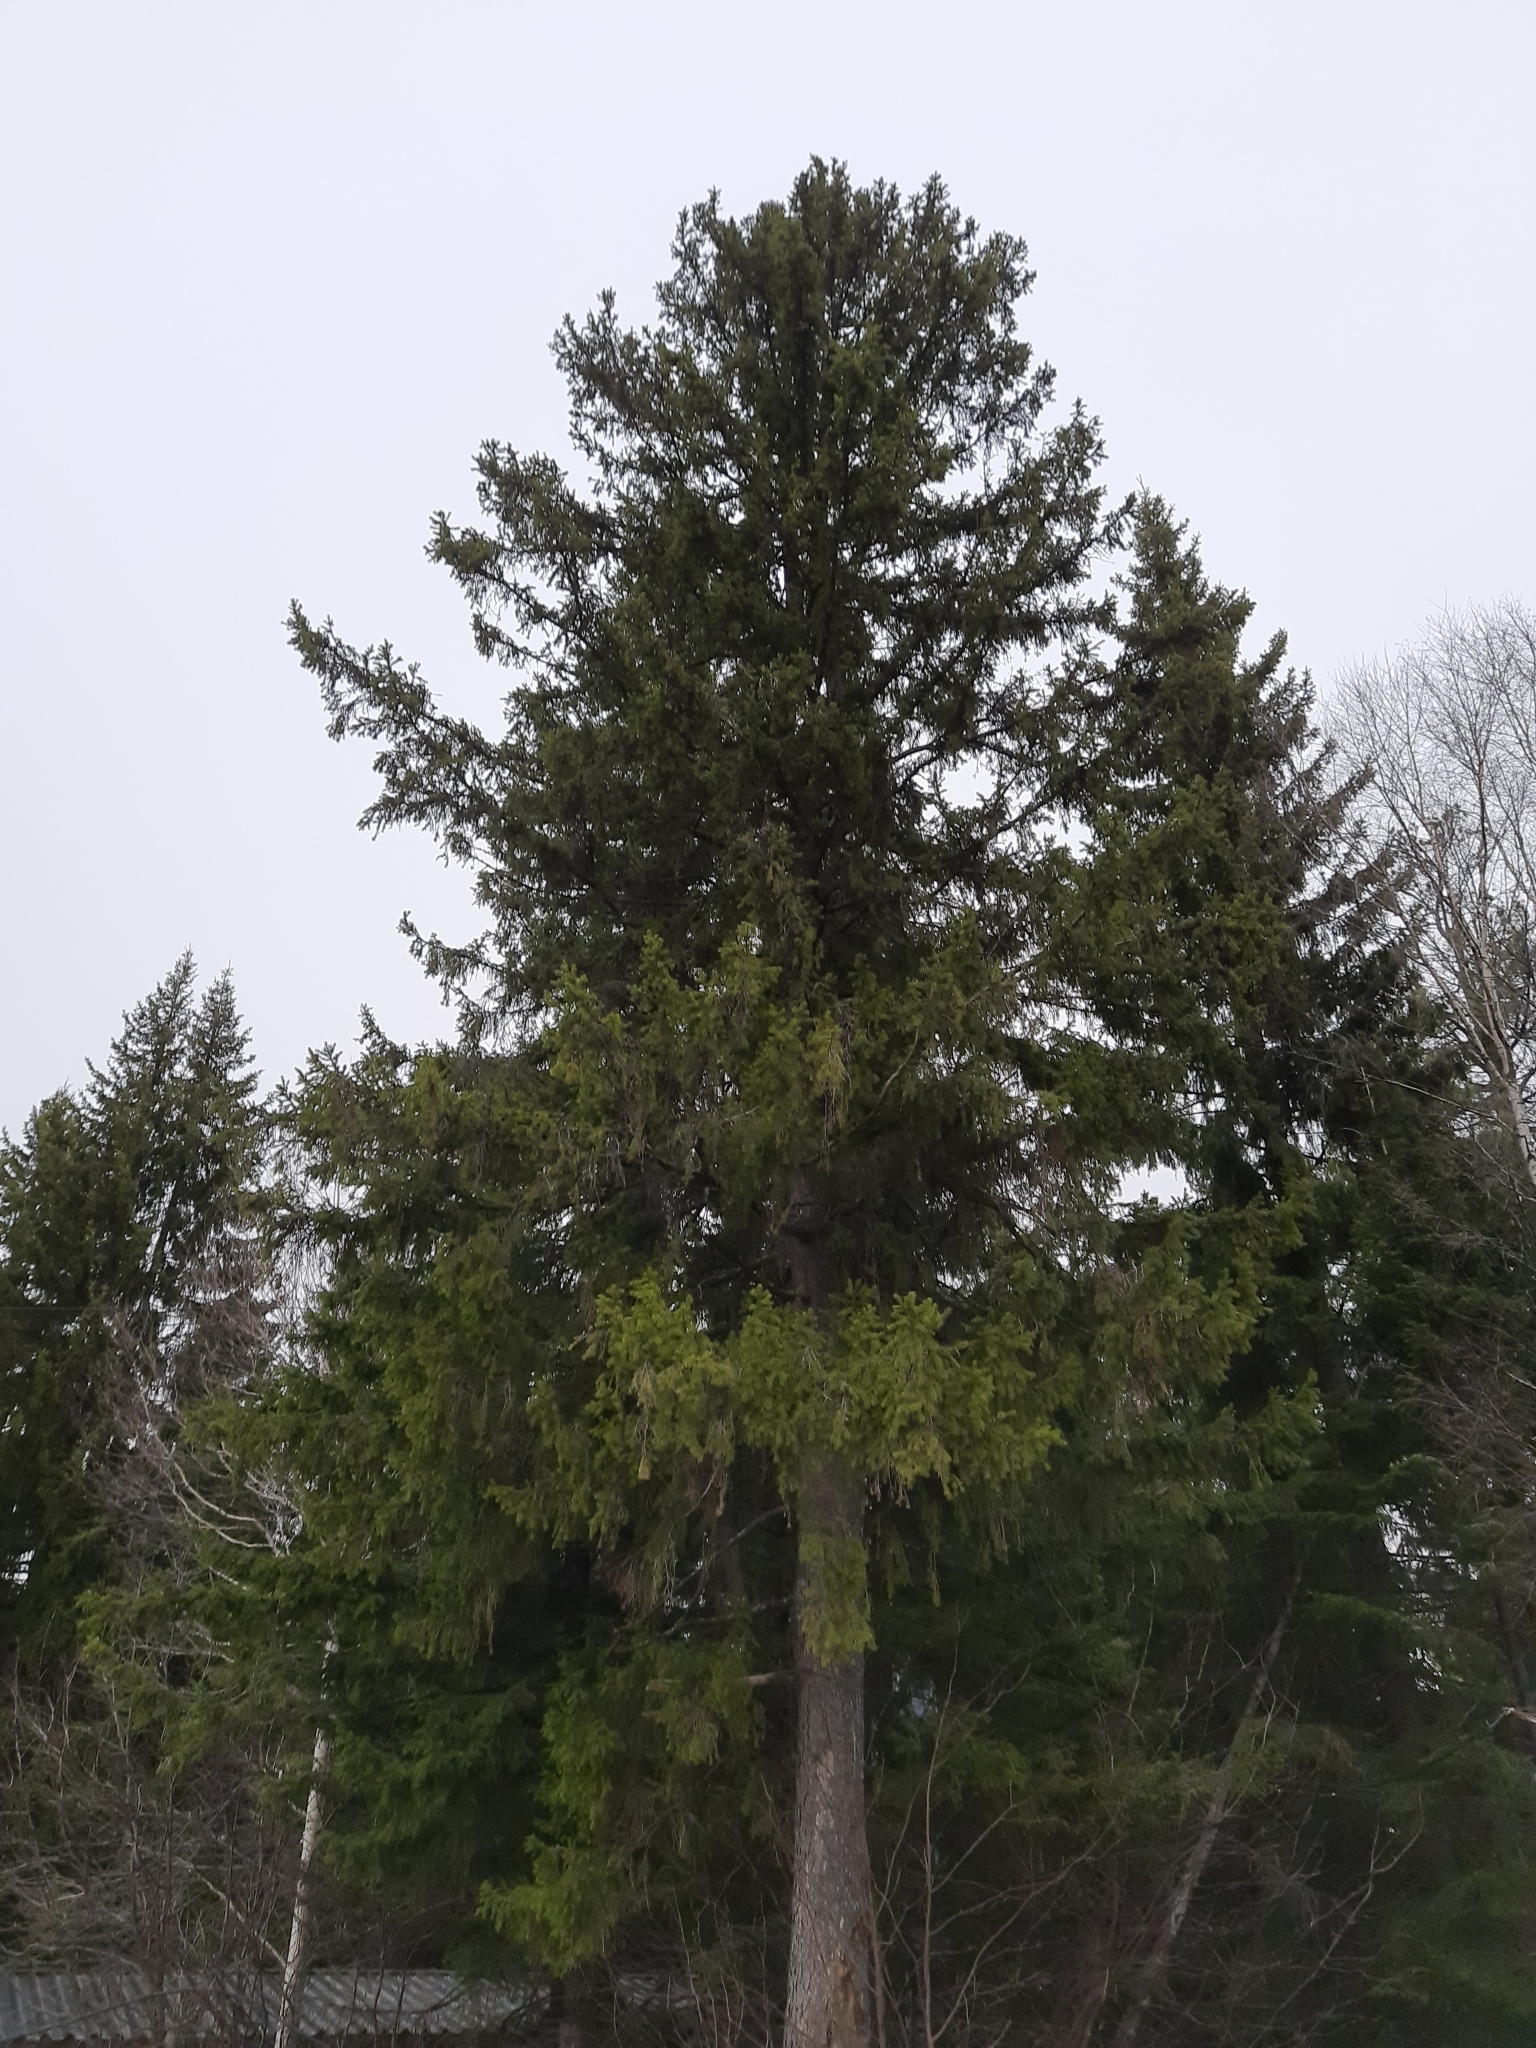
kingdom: Plantae
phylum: Tracheophyta
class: Pinopsida
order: Pinales
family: Pinaceae
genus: Picea
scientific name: Picea obovata
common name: Siberian spruce
